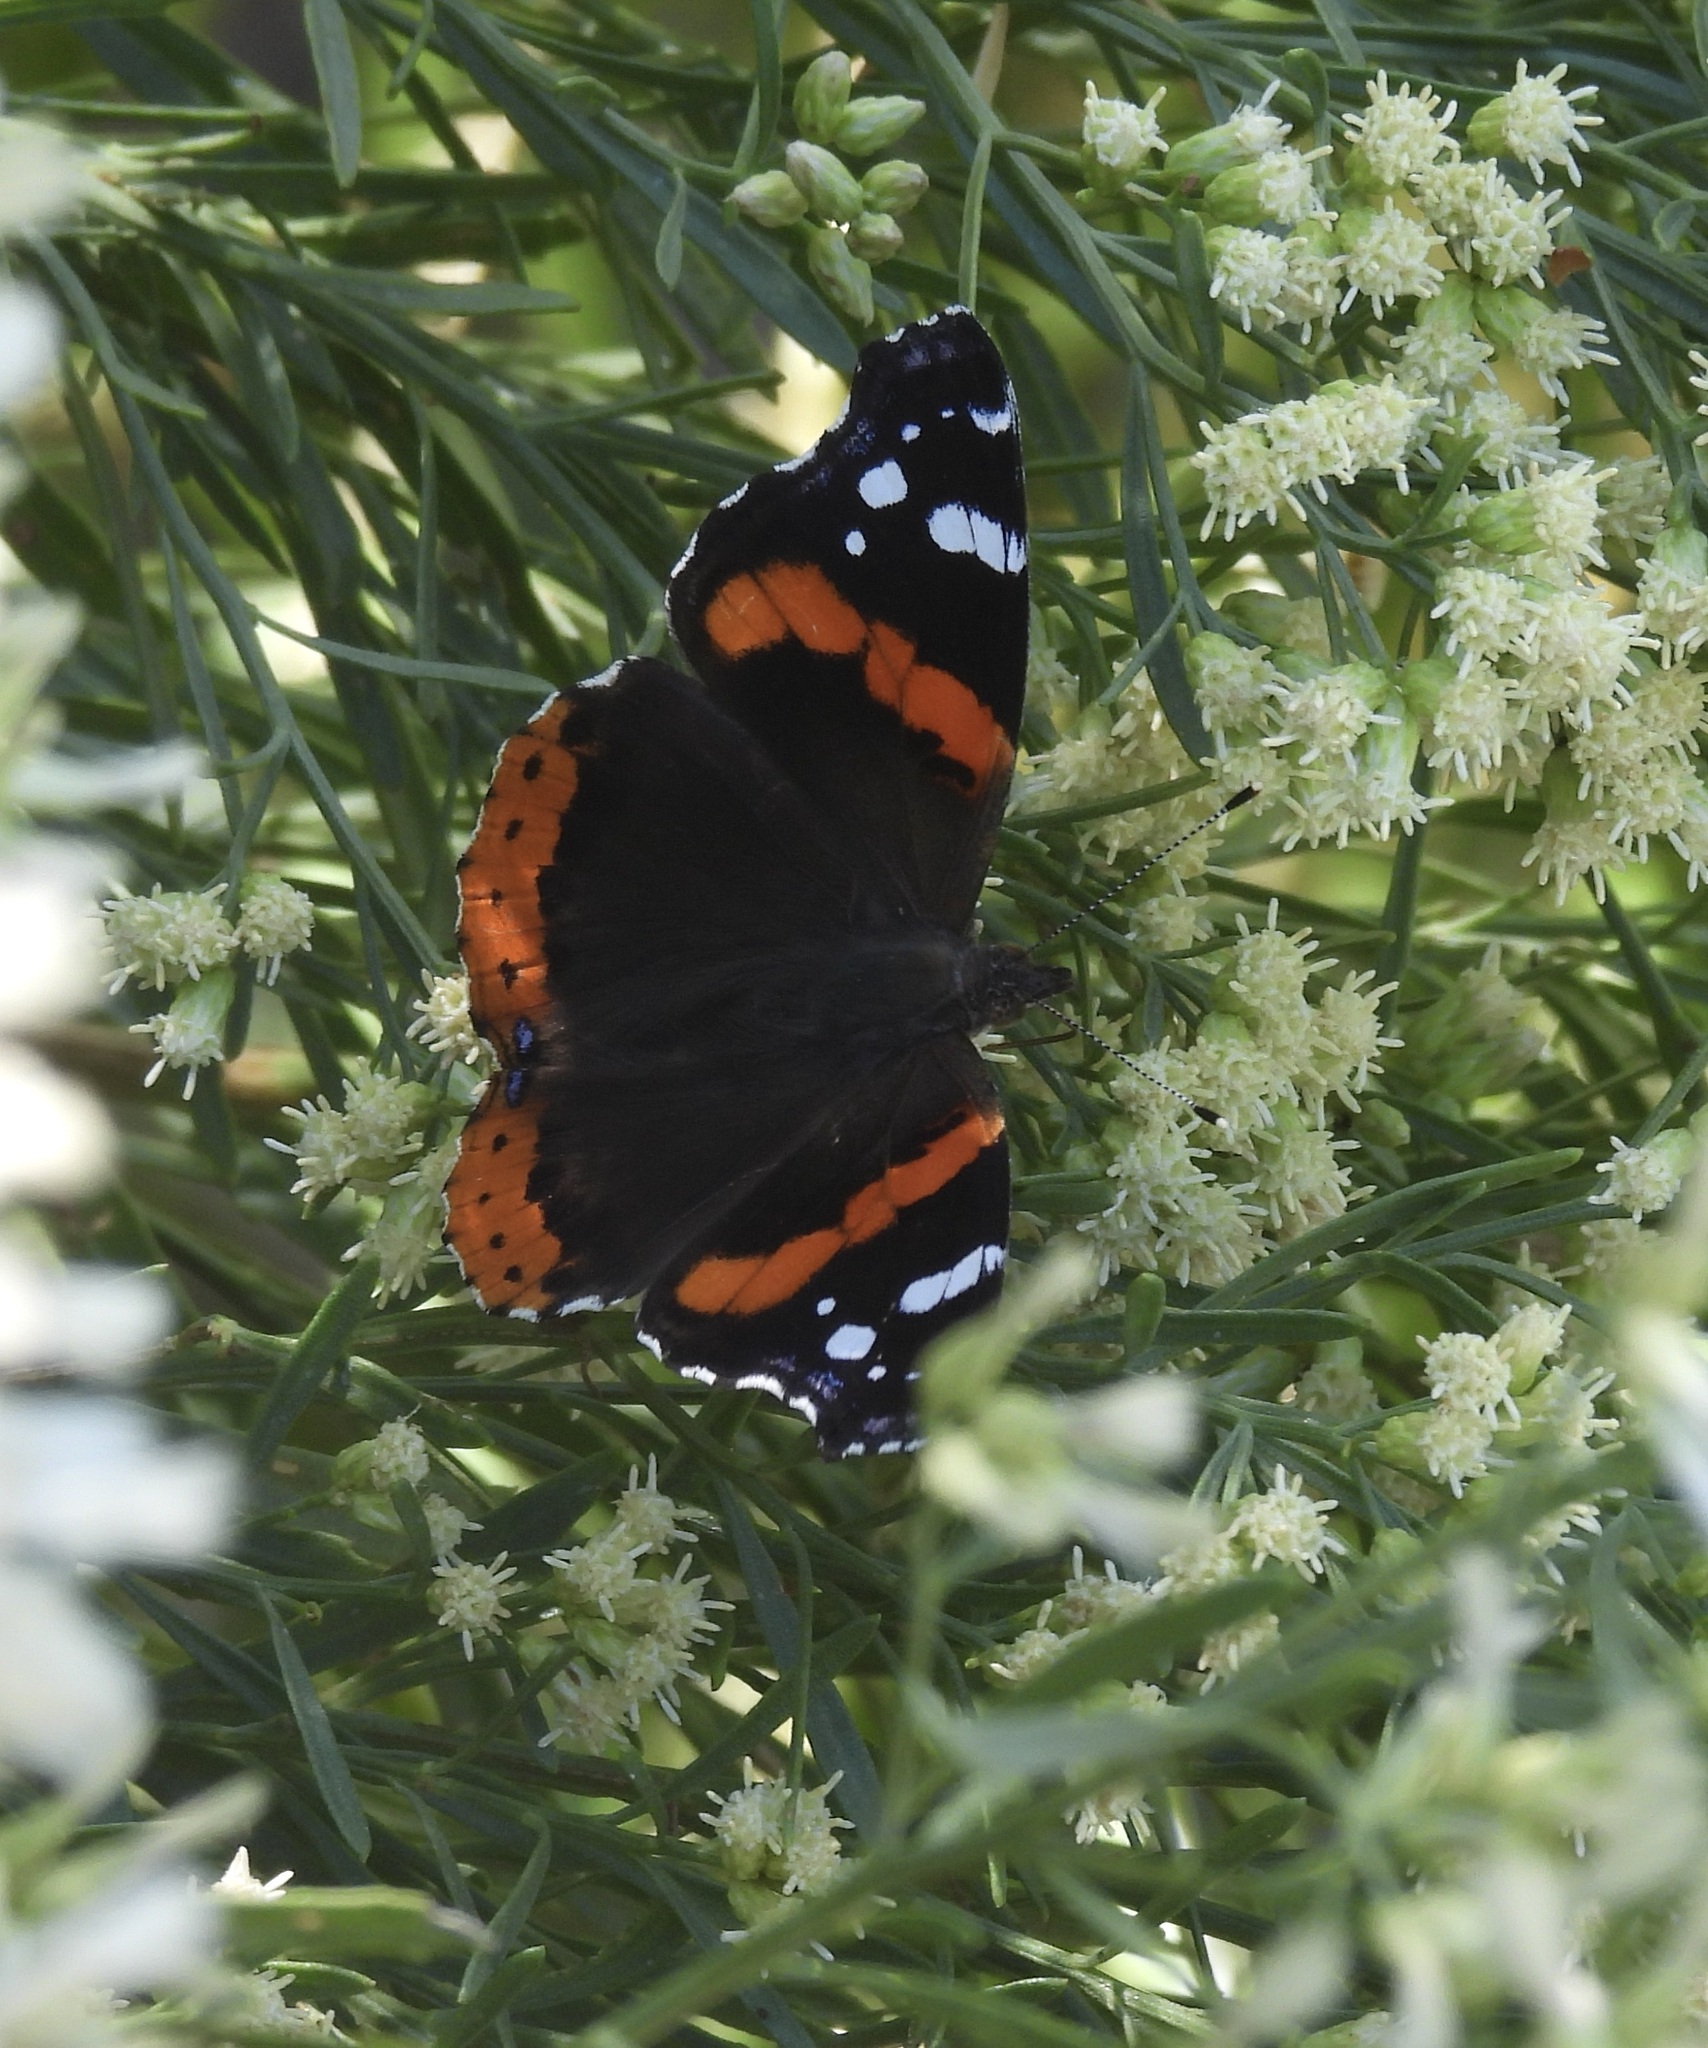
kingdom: Animalia
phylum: Arthropoda
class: Insecta
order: Lepidoptera
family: Nymphalidae
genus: Vanessa
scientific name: Vanessa atalanta
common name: Red admiral
